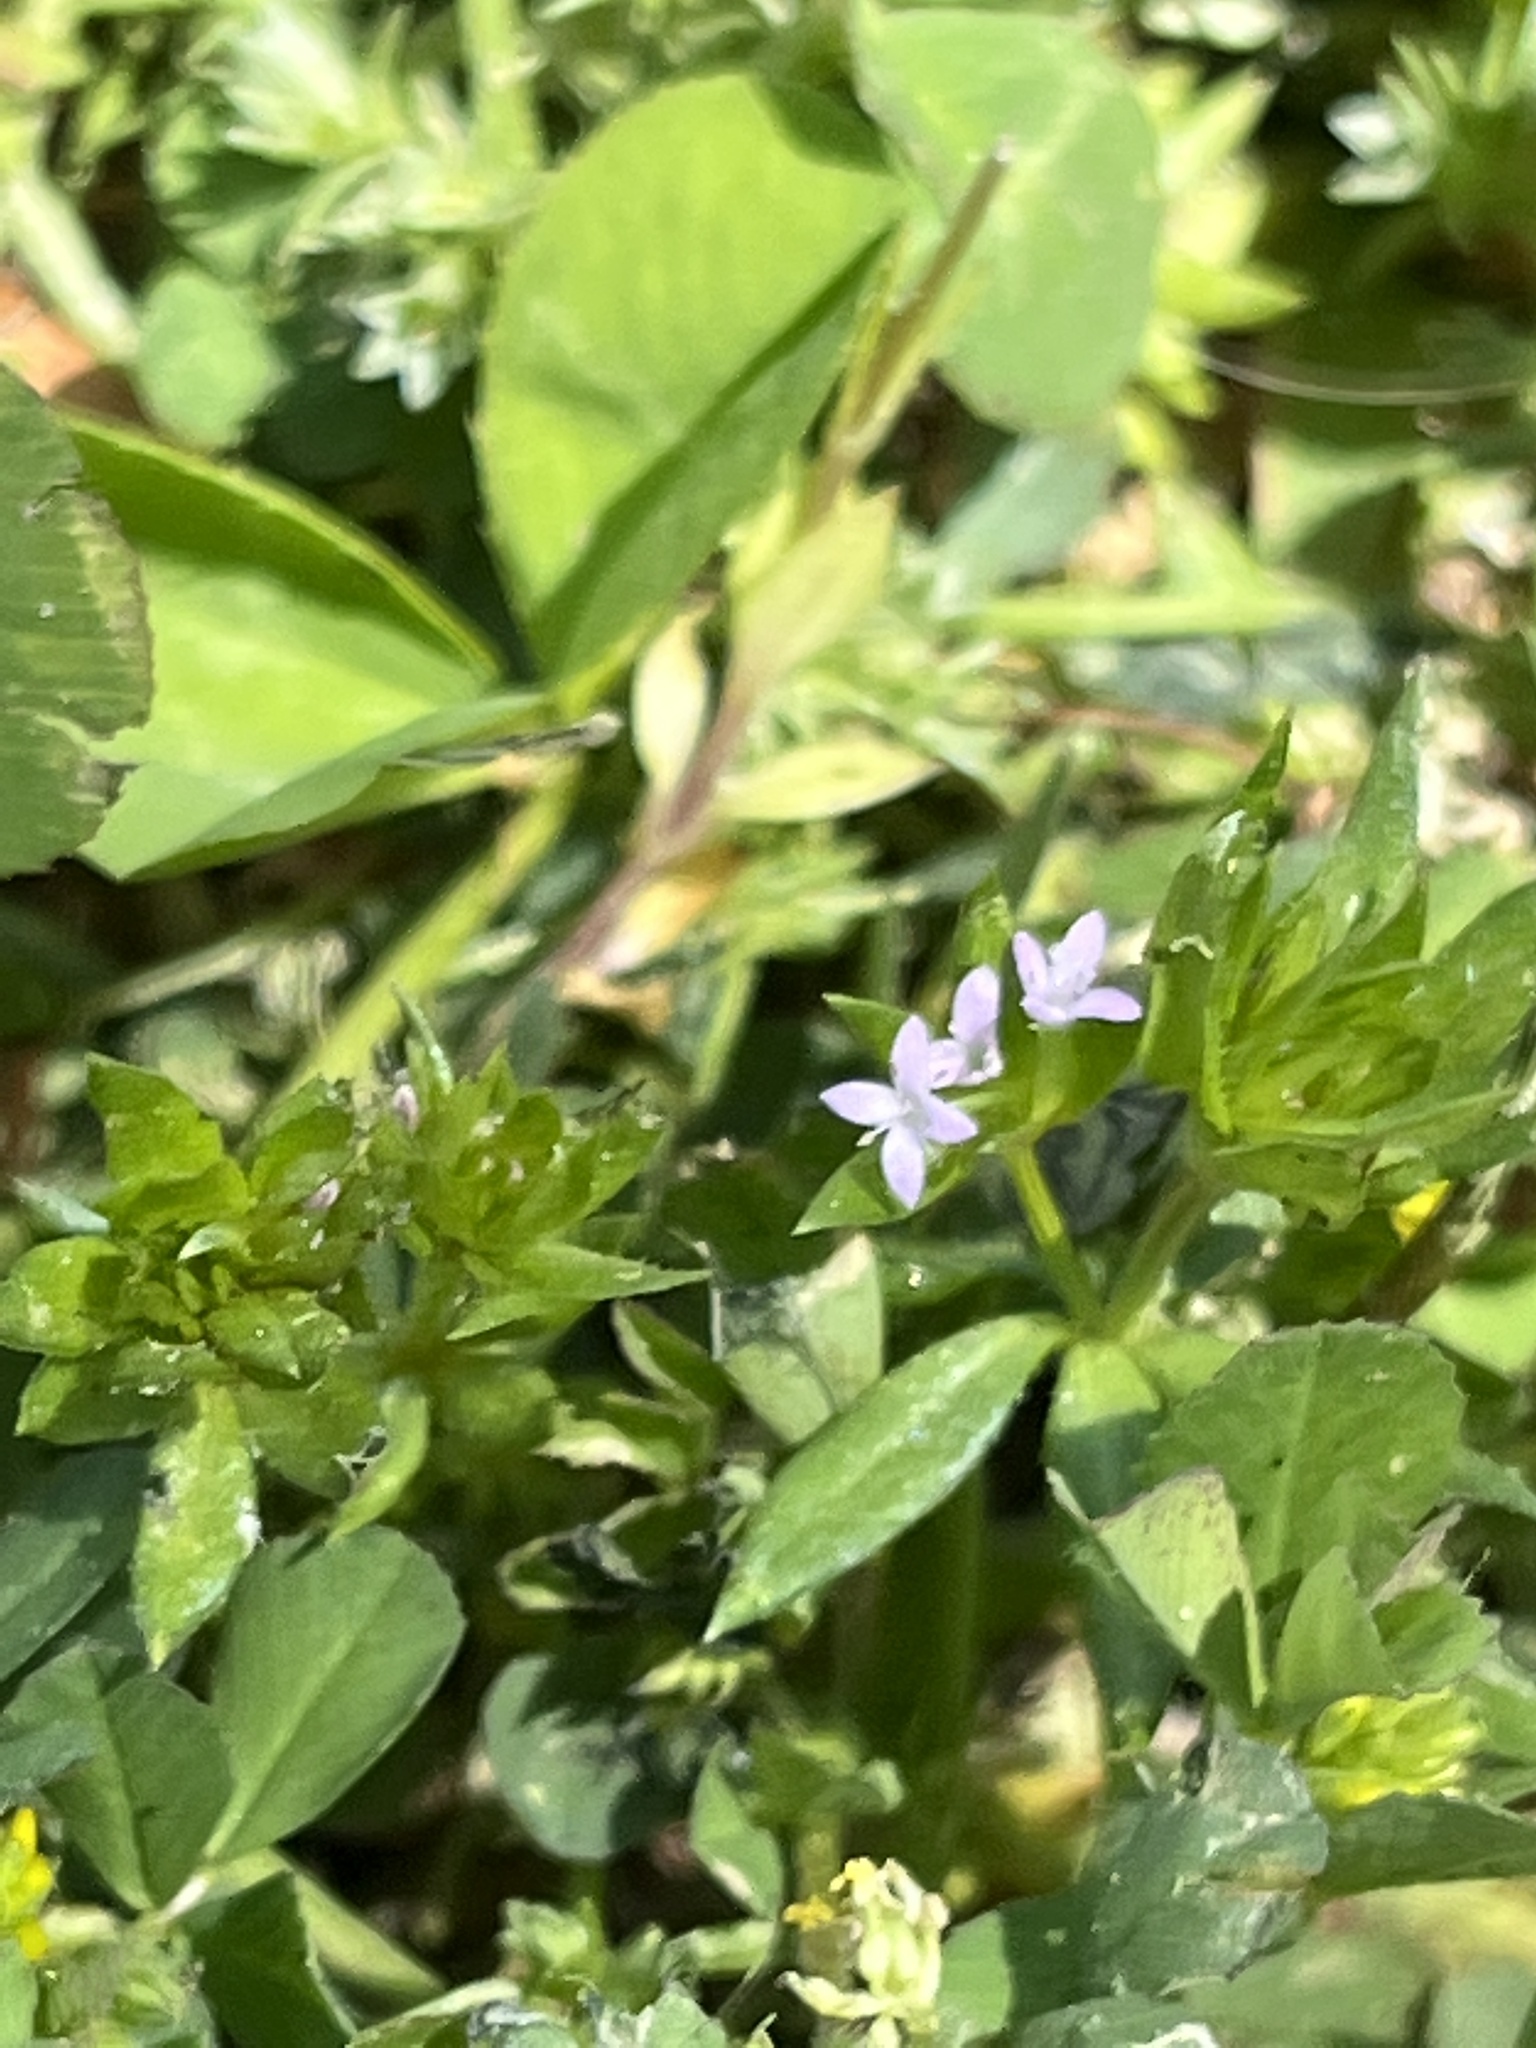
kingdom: Plantae
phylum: Tracheophyta
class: Magnoliopsida
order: Gentianales
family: Rubiaceae
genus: Sherardia
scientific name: Sherardia arvensis
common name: Field madder
